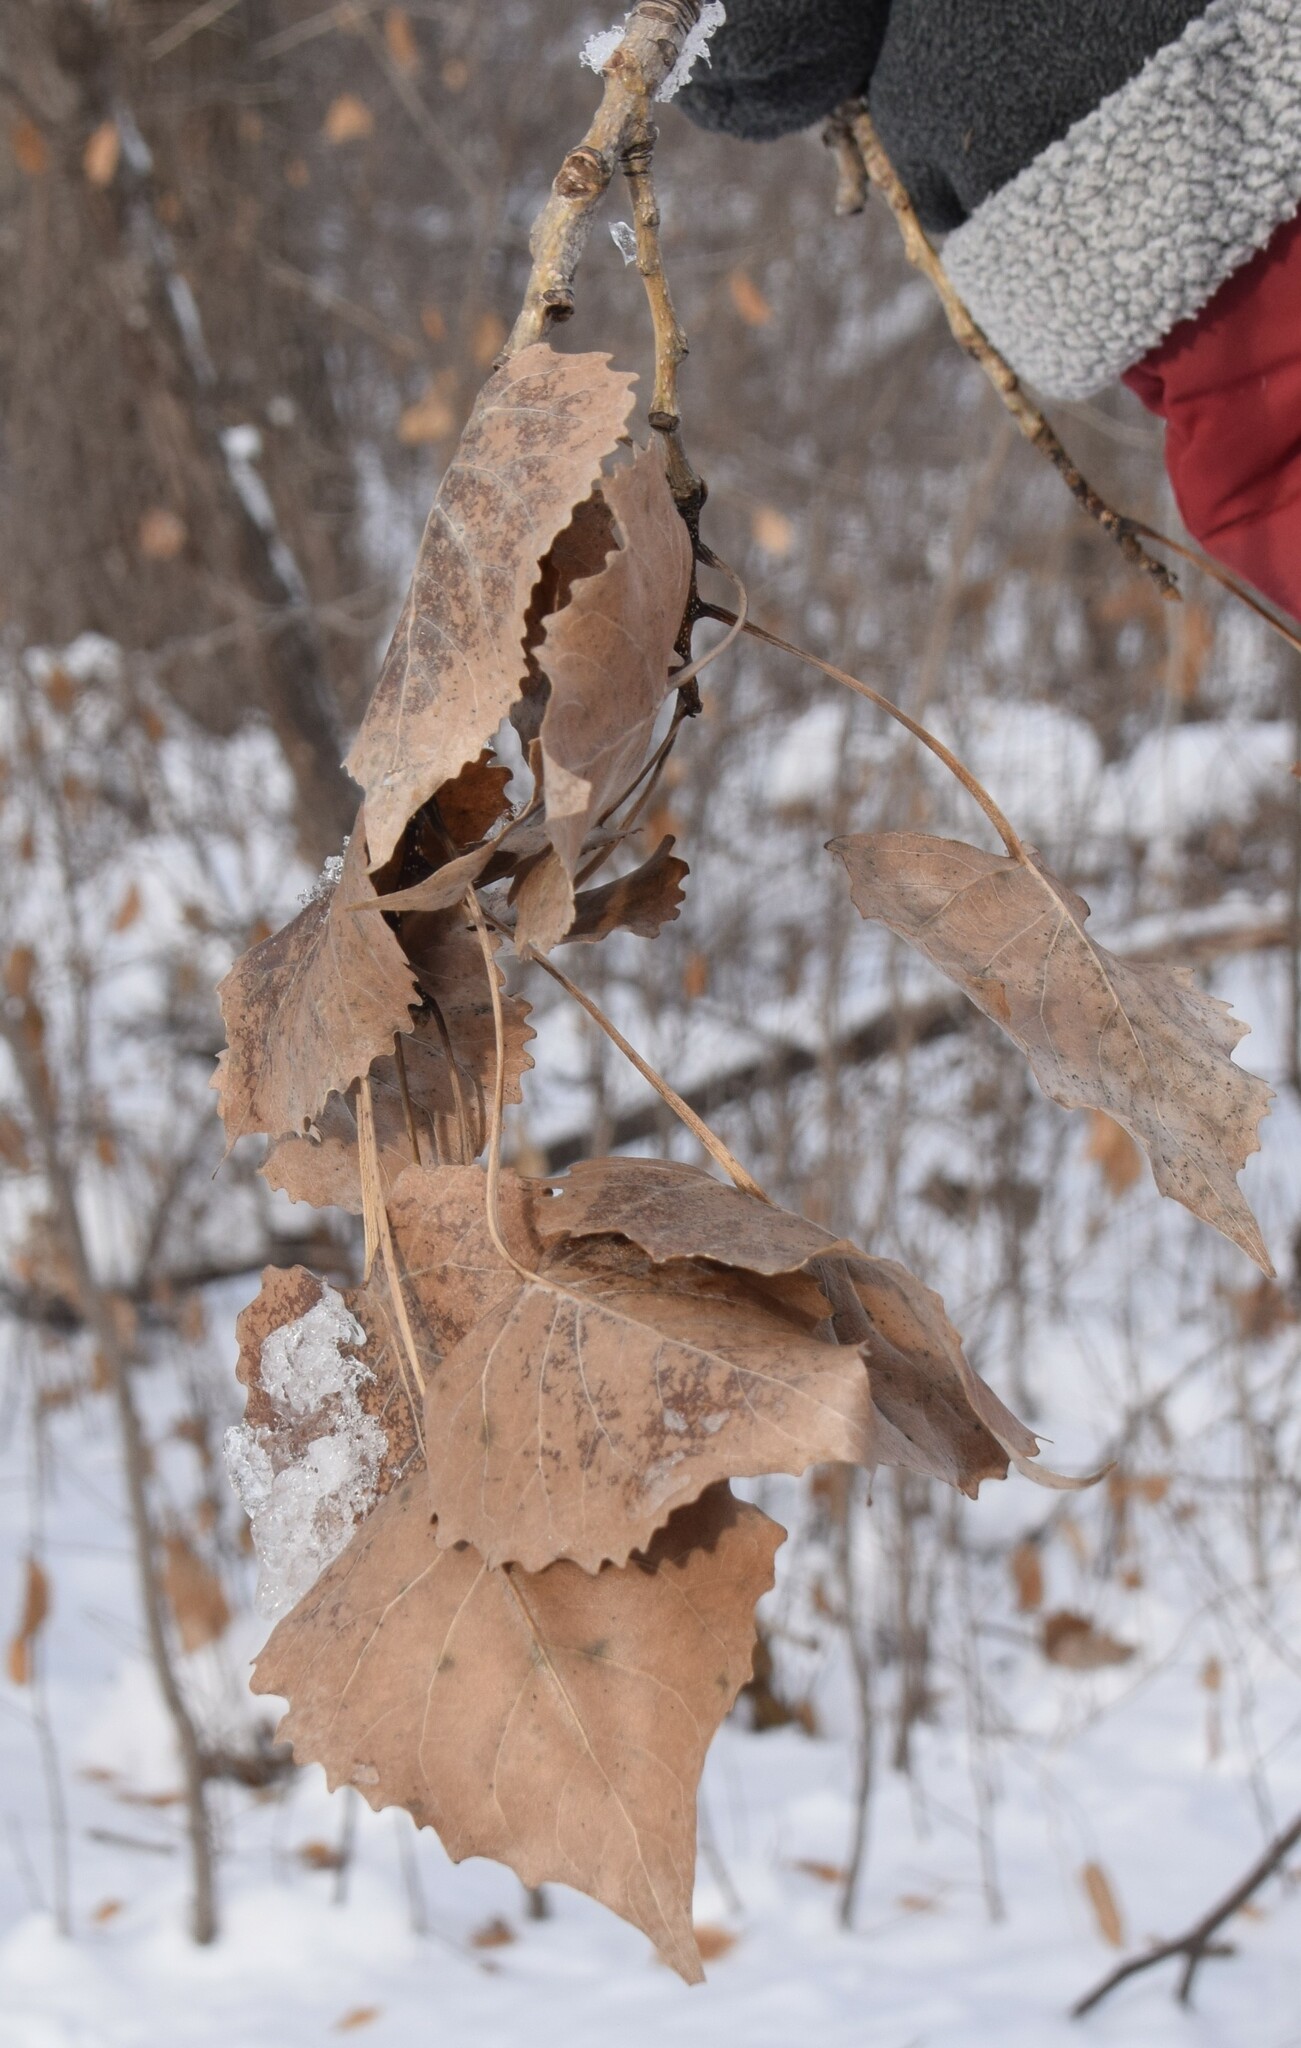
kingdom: Plantae
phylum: Tracheophyta
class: Magnoliopsida
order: Malpighiales
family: Salicaceae
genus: Populus
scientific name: Populus deltoides
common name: Eastern cottonwood
